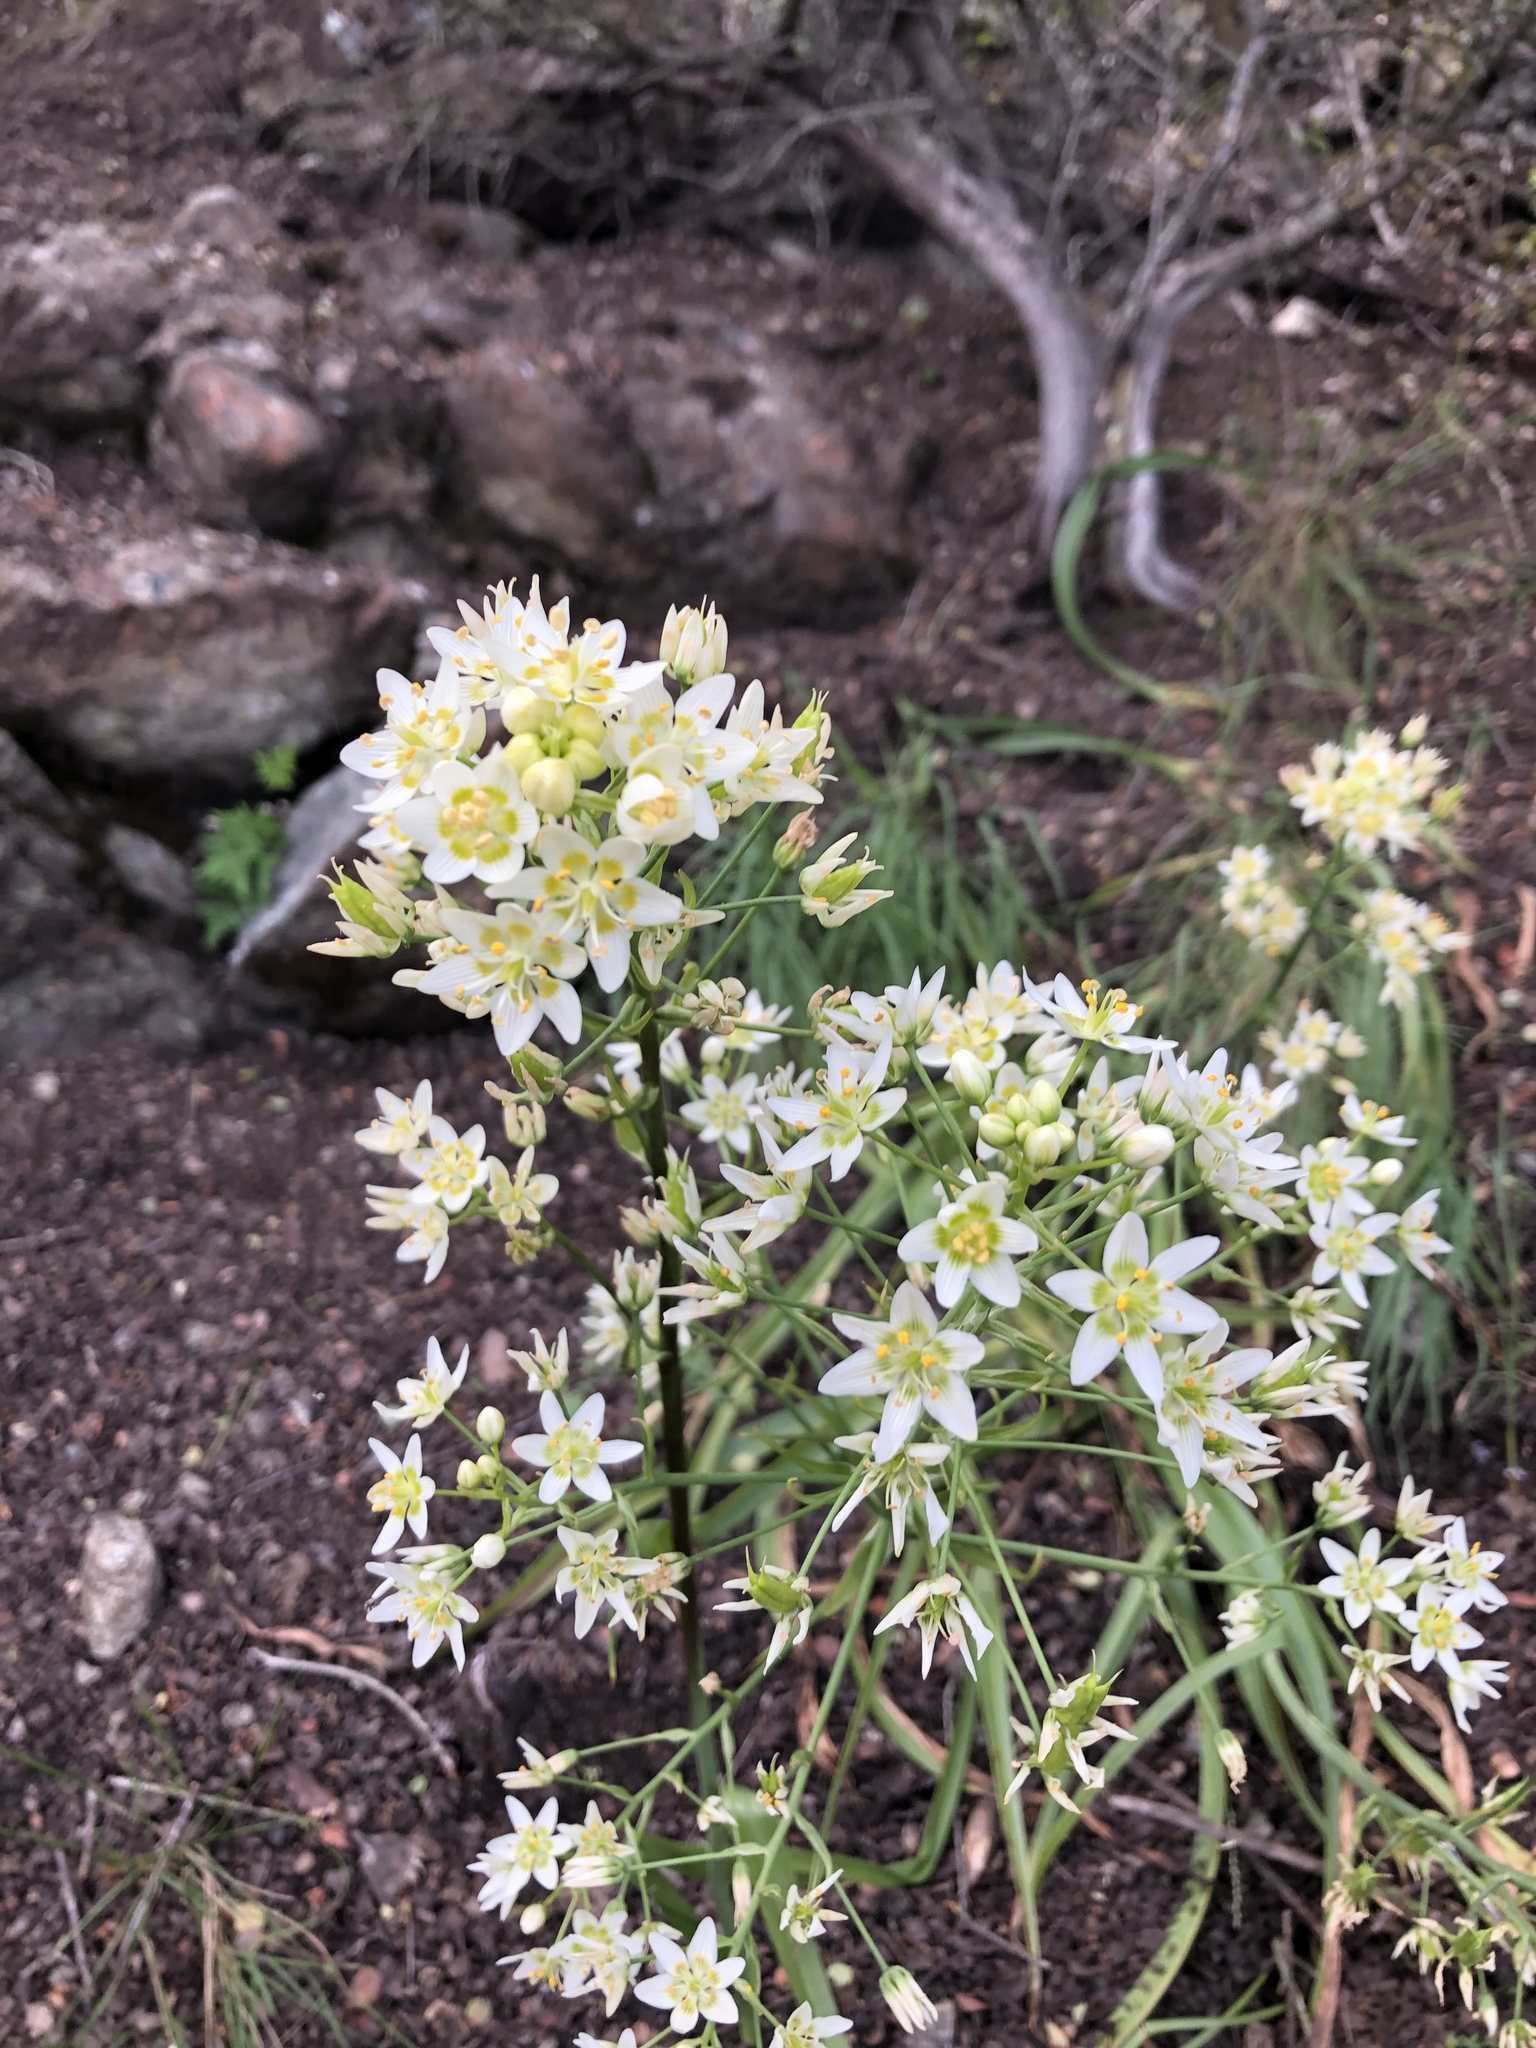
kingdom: Plantae
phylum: Tracheophyta
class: Liliopsida
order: Liliales
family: Melanthiaceae
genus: Toxicoscordion
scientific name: Toxicoscordion fremontii
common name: Fremont's death camas
